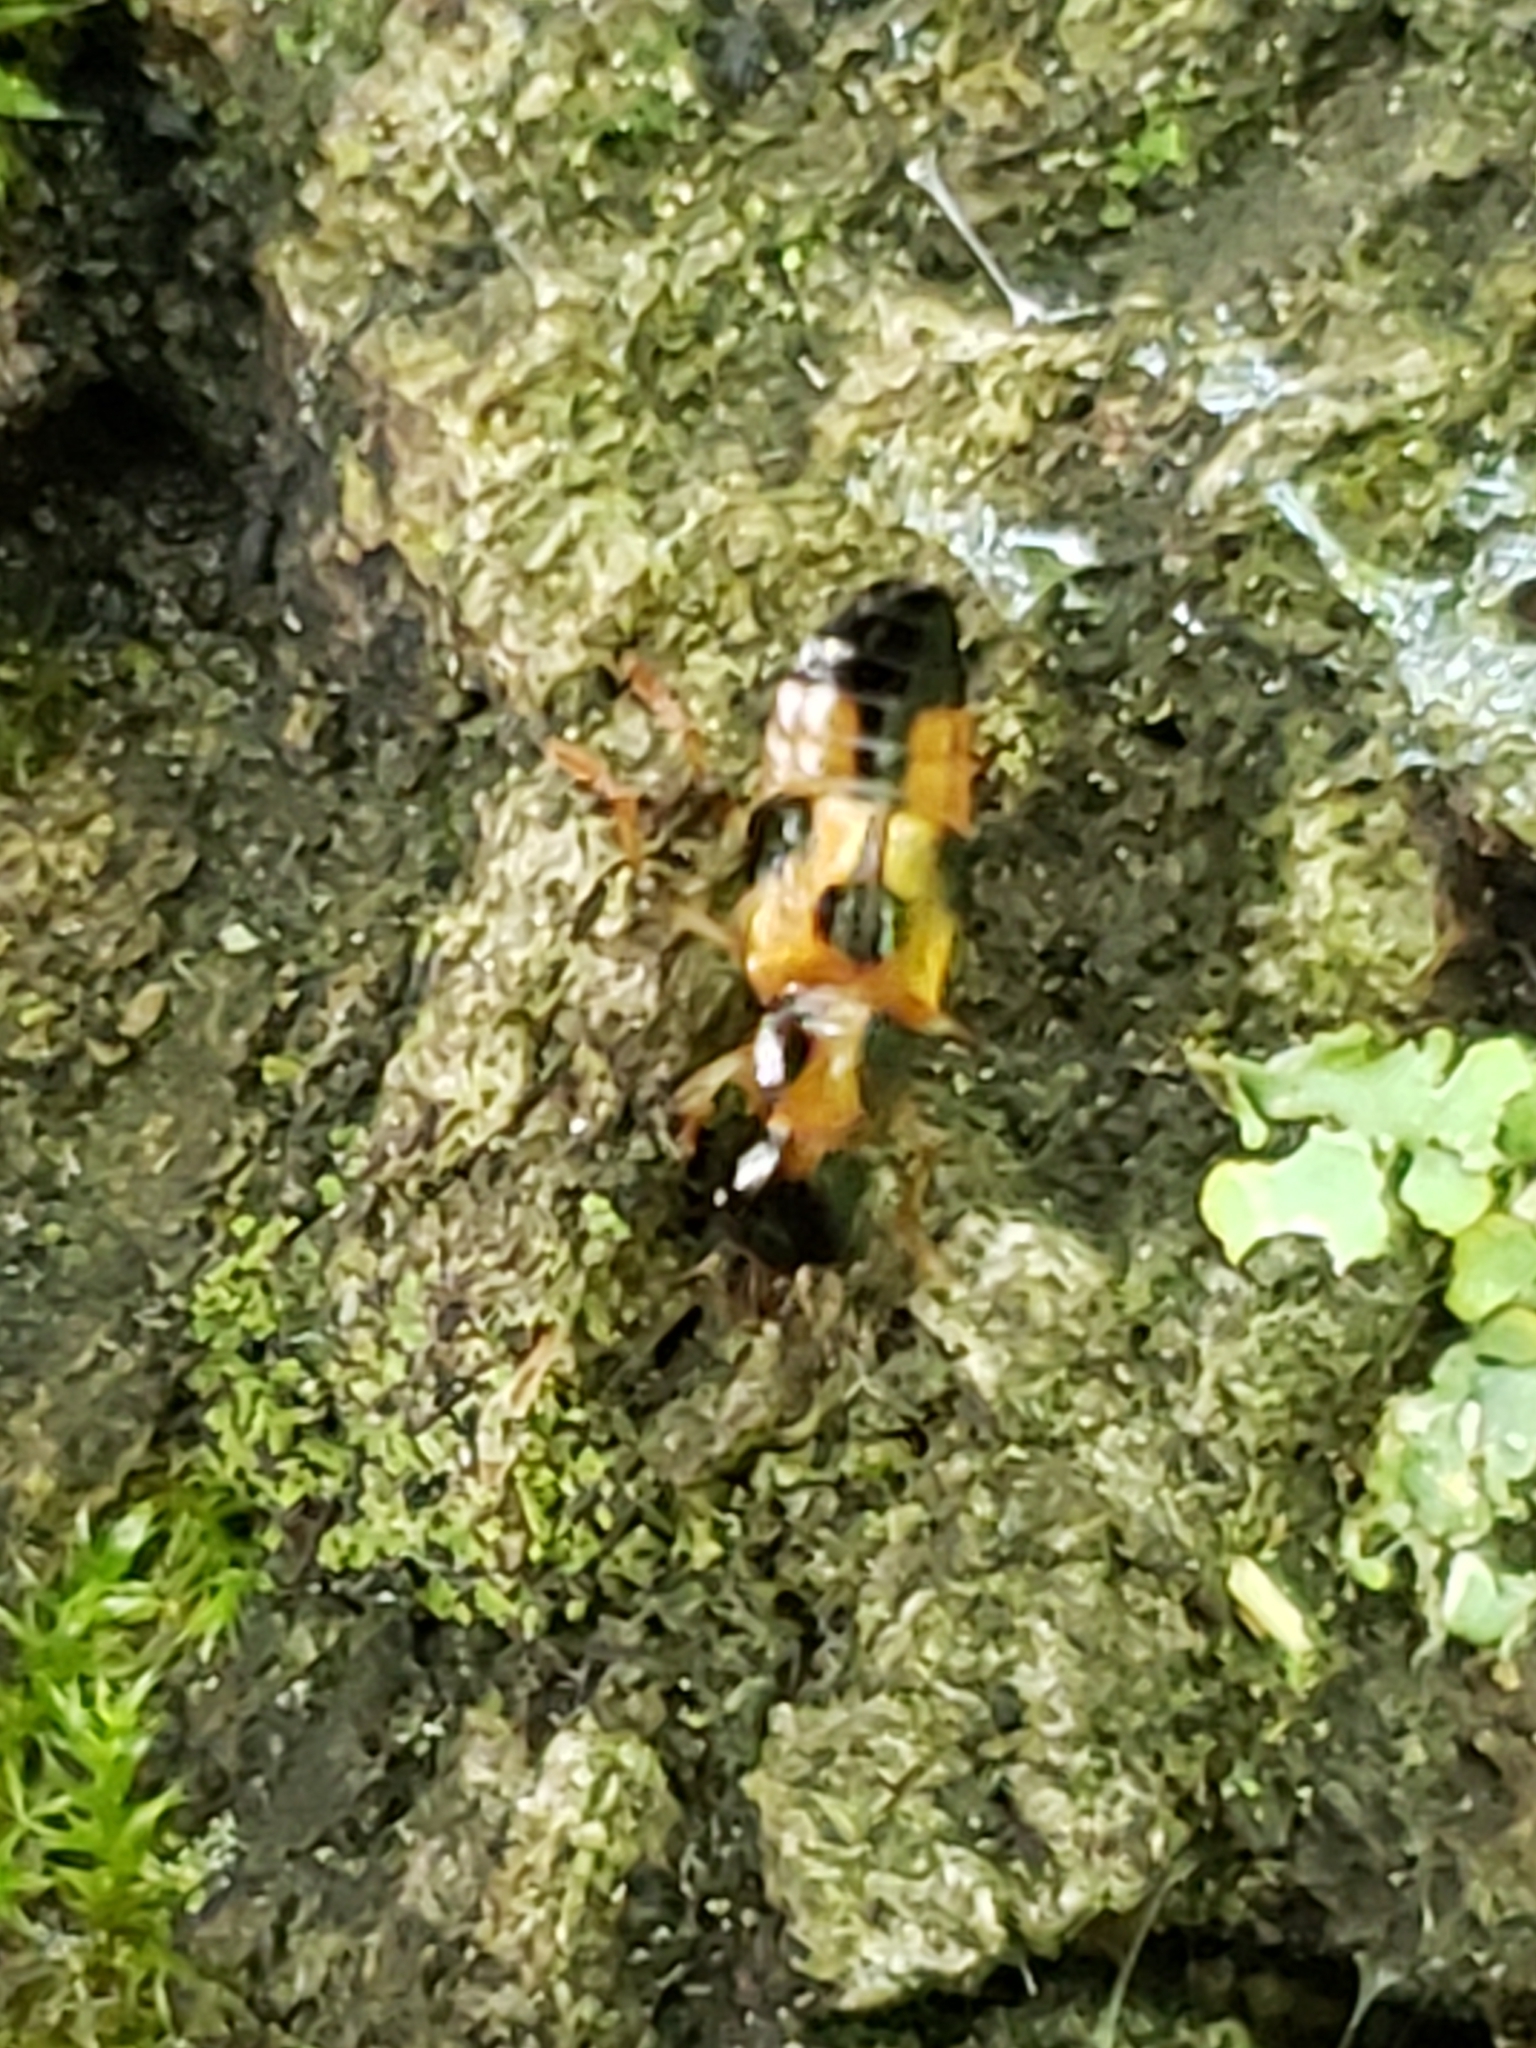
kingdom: Animalia
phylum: Arthropoda
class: Insecta
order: Coleoptera
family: Staphylinidae
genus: Pseudoxyporus
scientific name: Pseudoxyporus quinquemaculatus
